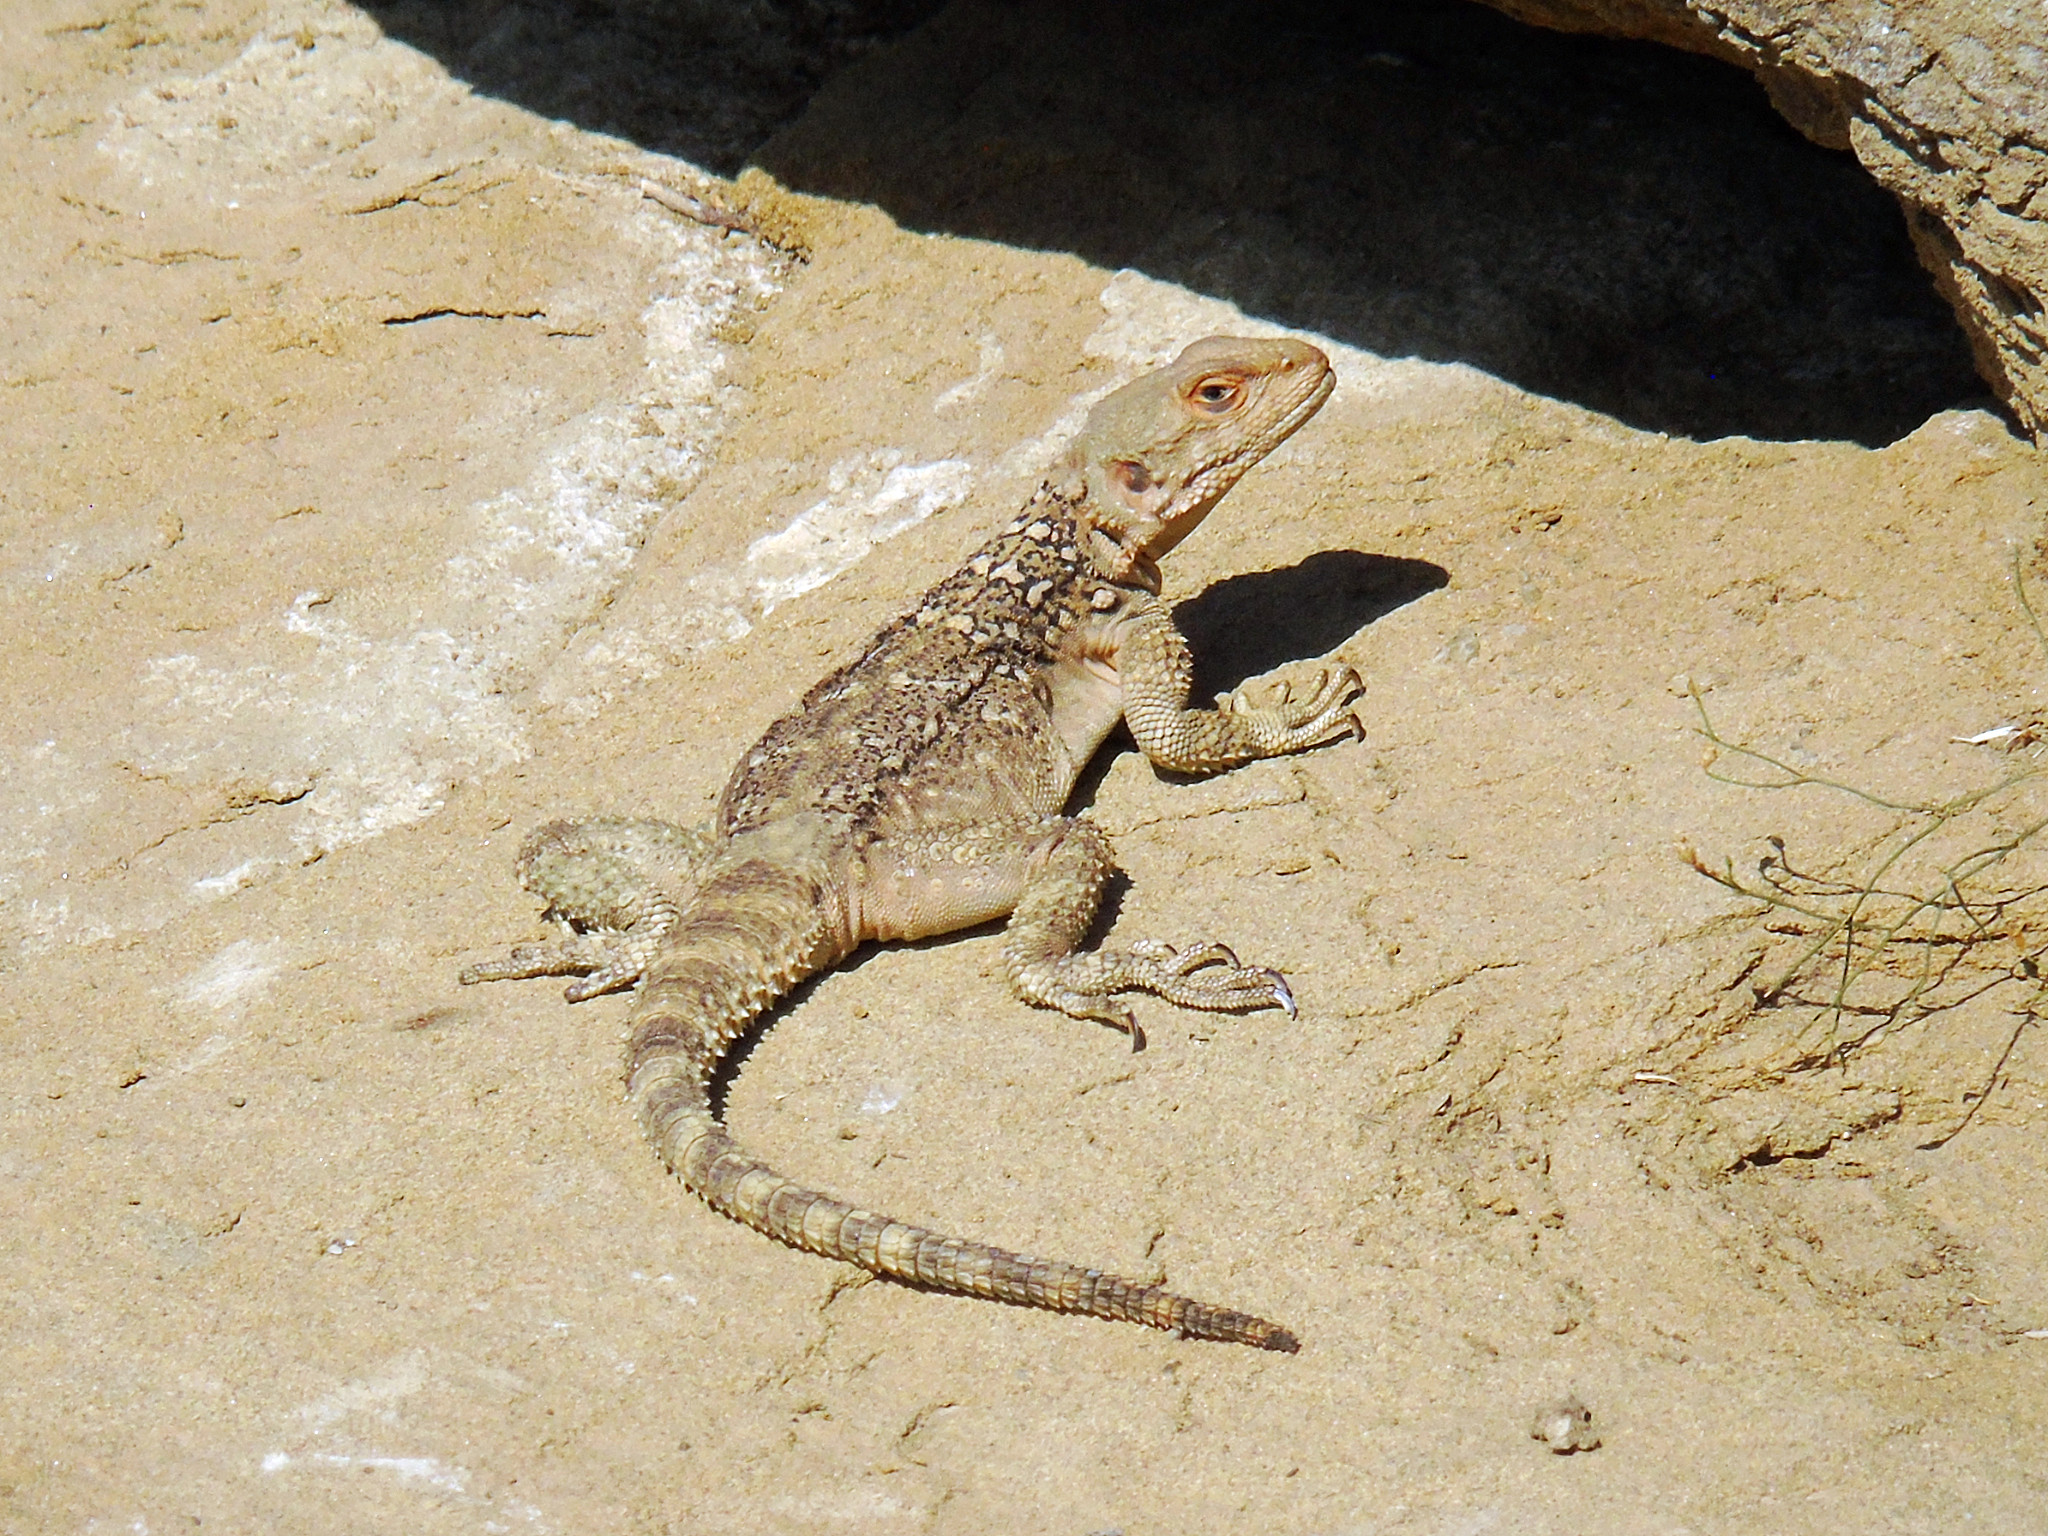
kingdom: Animalia
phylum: Chordata
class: Squamata
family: Agamidae
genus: Paralaudakia
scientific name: Paralaudakia caucasia
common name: Caucasian agama
